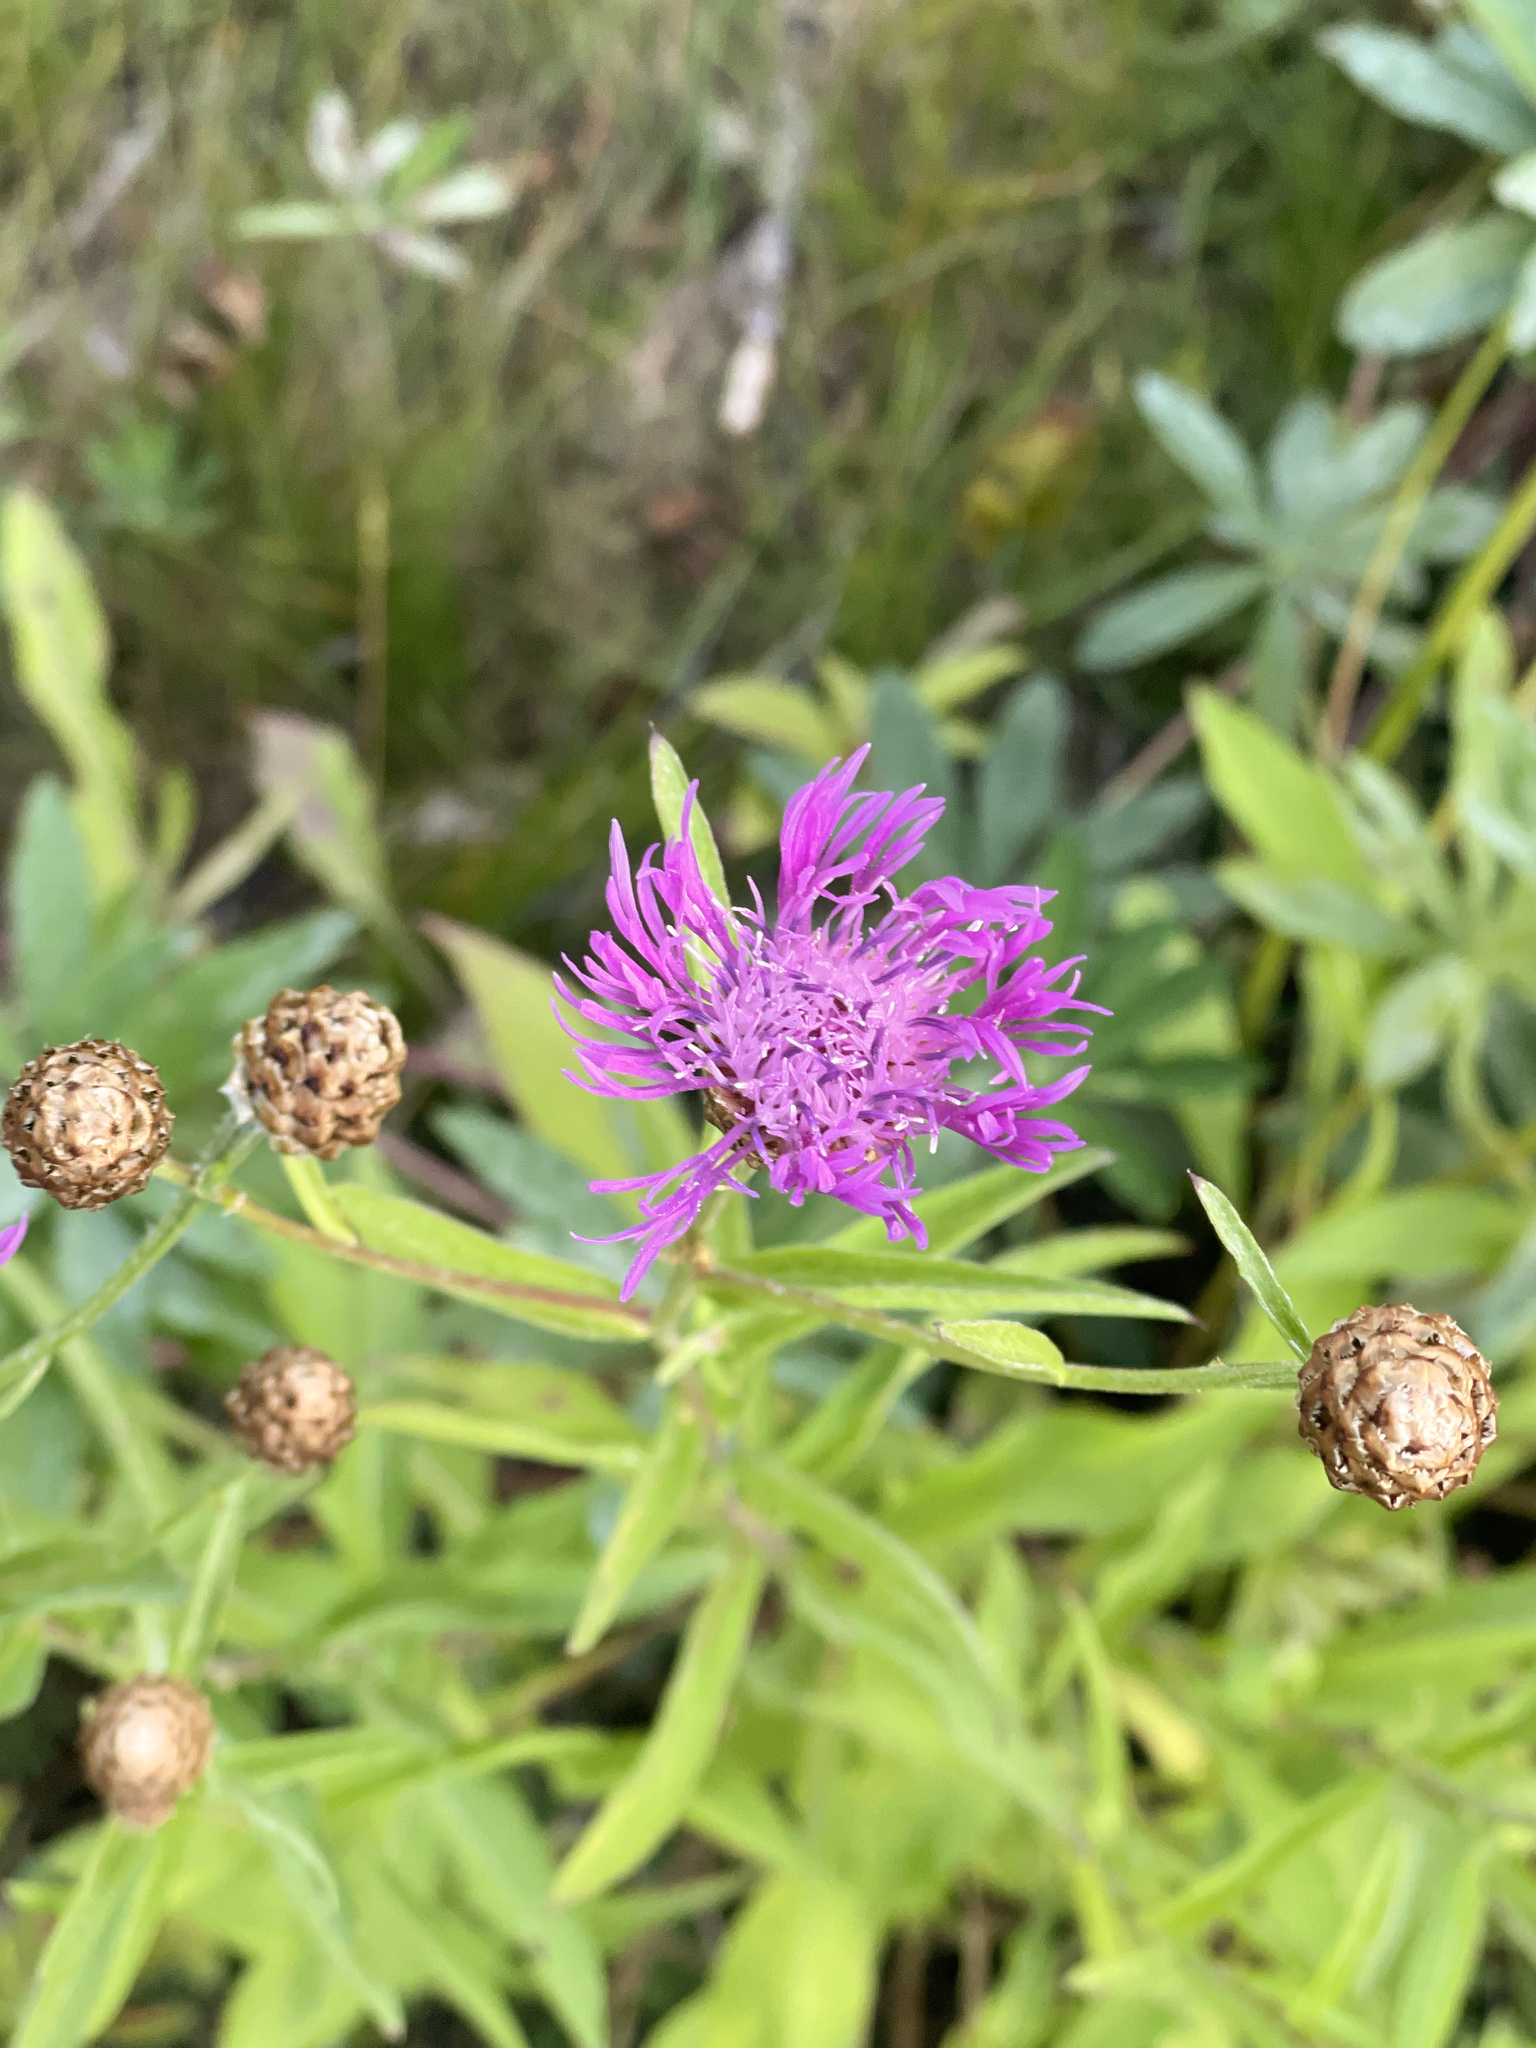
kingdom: Plantae
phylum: Tracheophyta
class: Magnoliopsida
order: Asterales
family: Asteraceae
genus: Centaurea
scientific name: Centaurea jacea
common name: Brown knapweed
